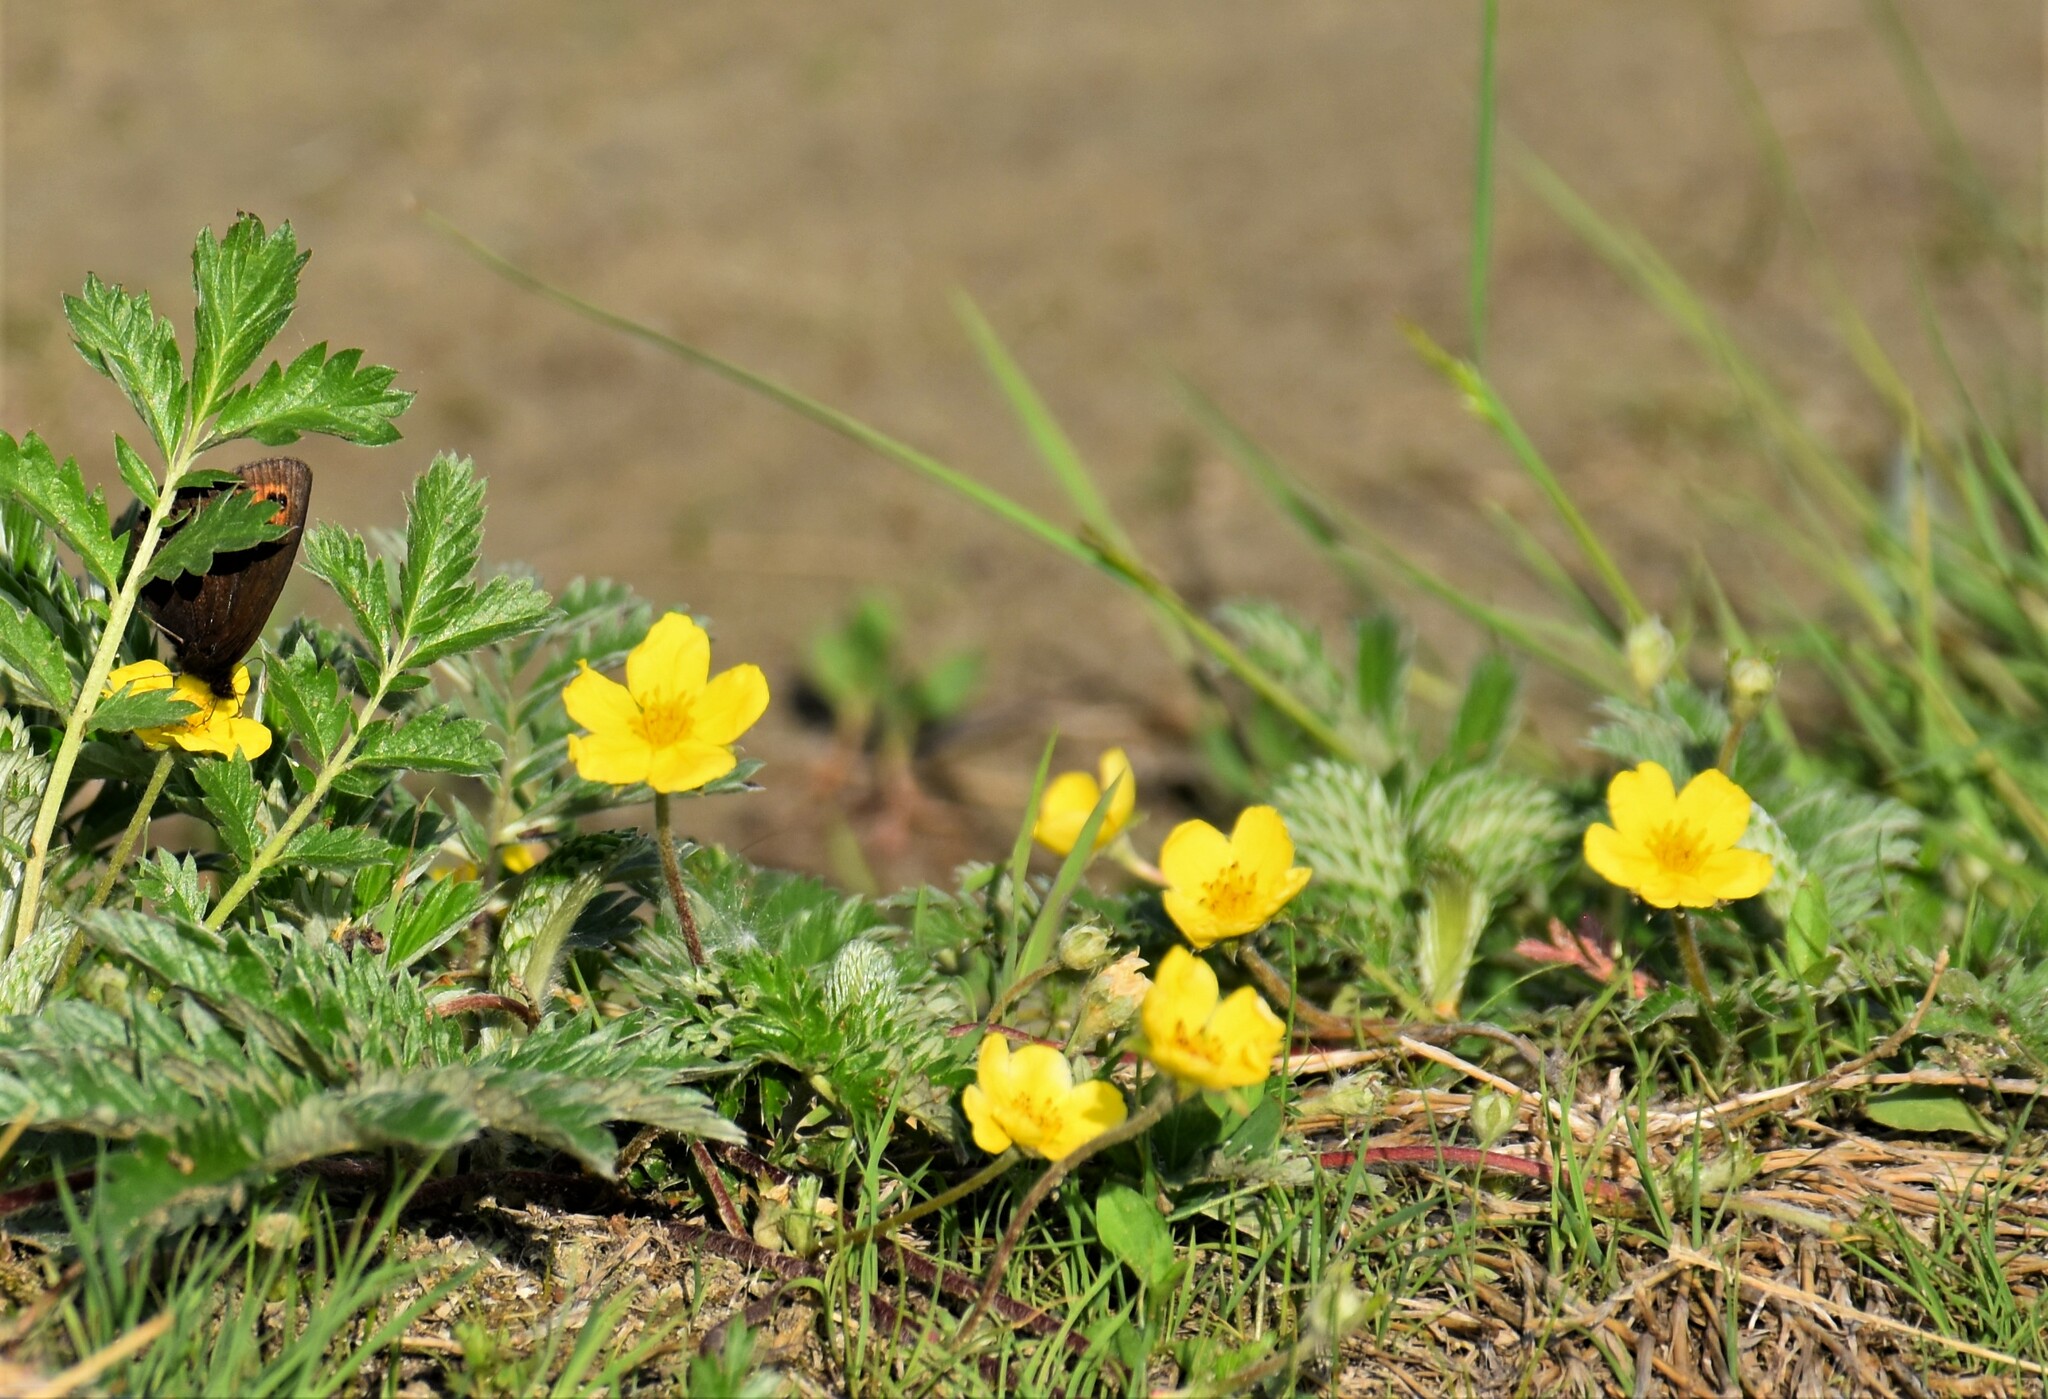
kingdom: Plantae
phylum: Tracheophyta
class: Magnoliopsida
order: Rosales
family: Rosaceae
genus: Argentina
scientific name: Argentina anserina
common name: Common silverweed
